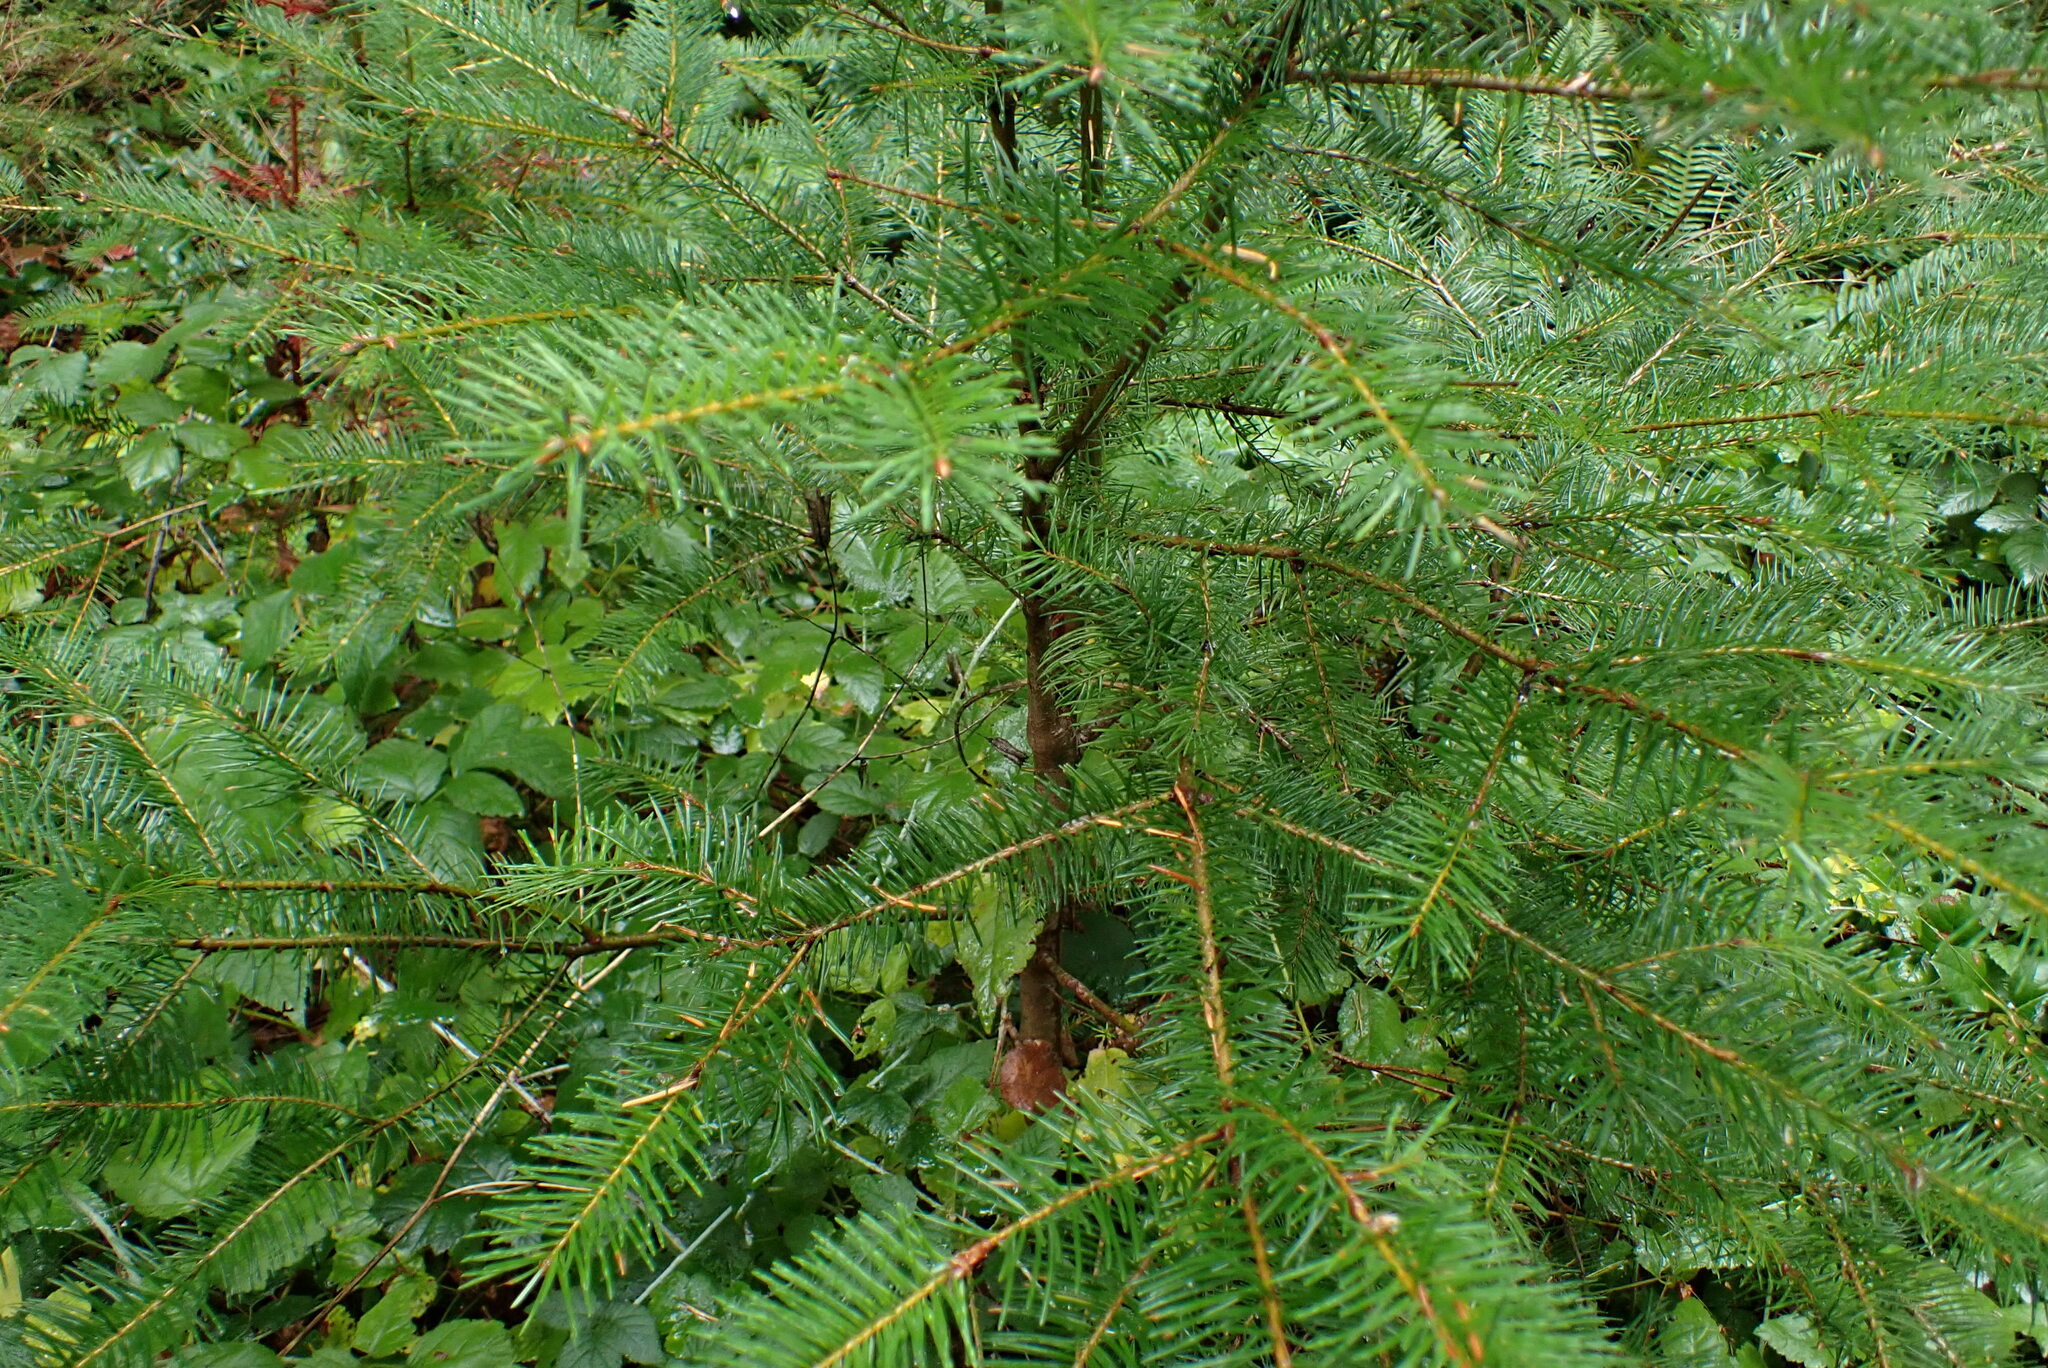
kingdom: Plantae
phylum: Tracheophyta
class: Pinopsida
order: Pinales
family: Pinaceae
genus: Pseudotsuga
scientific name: Pseudotsuga menziesii
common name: Douglas fir
